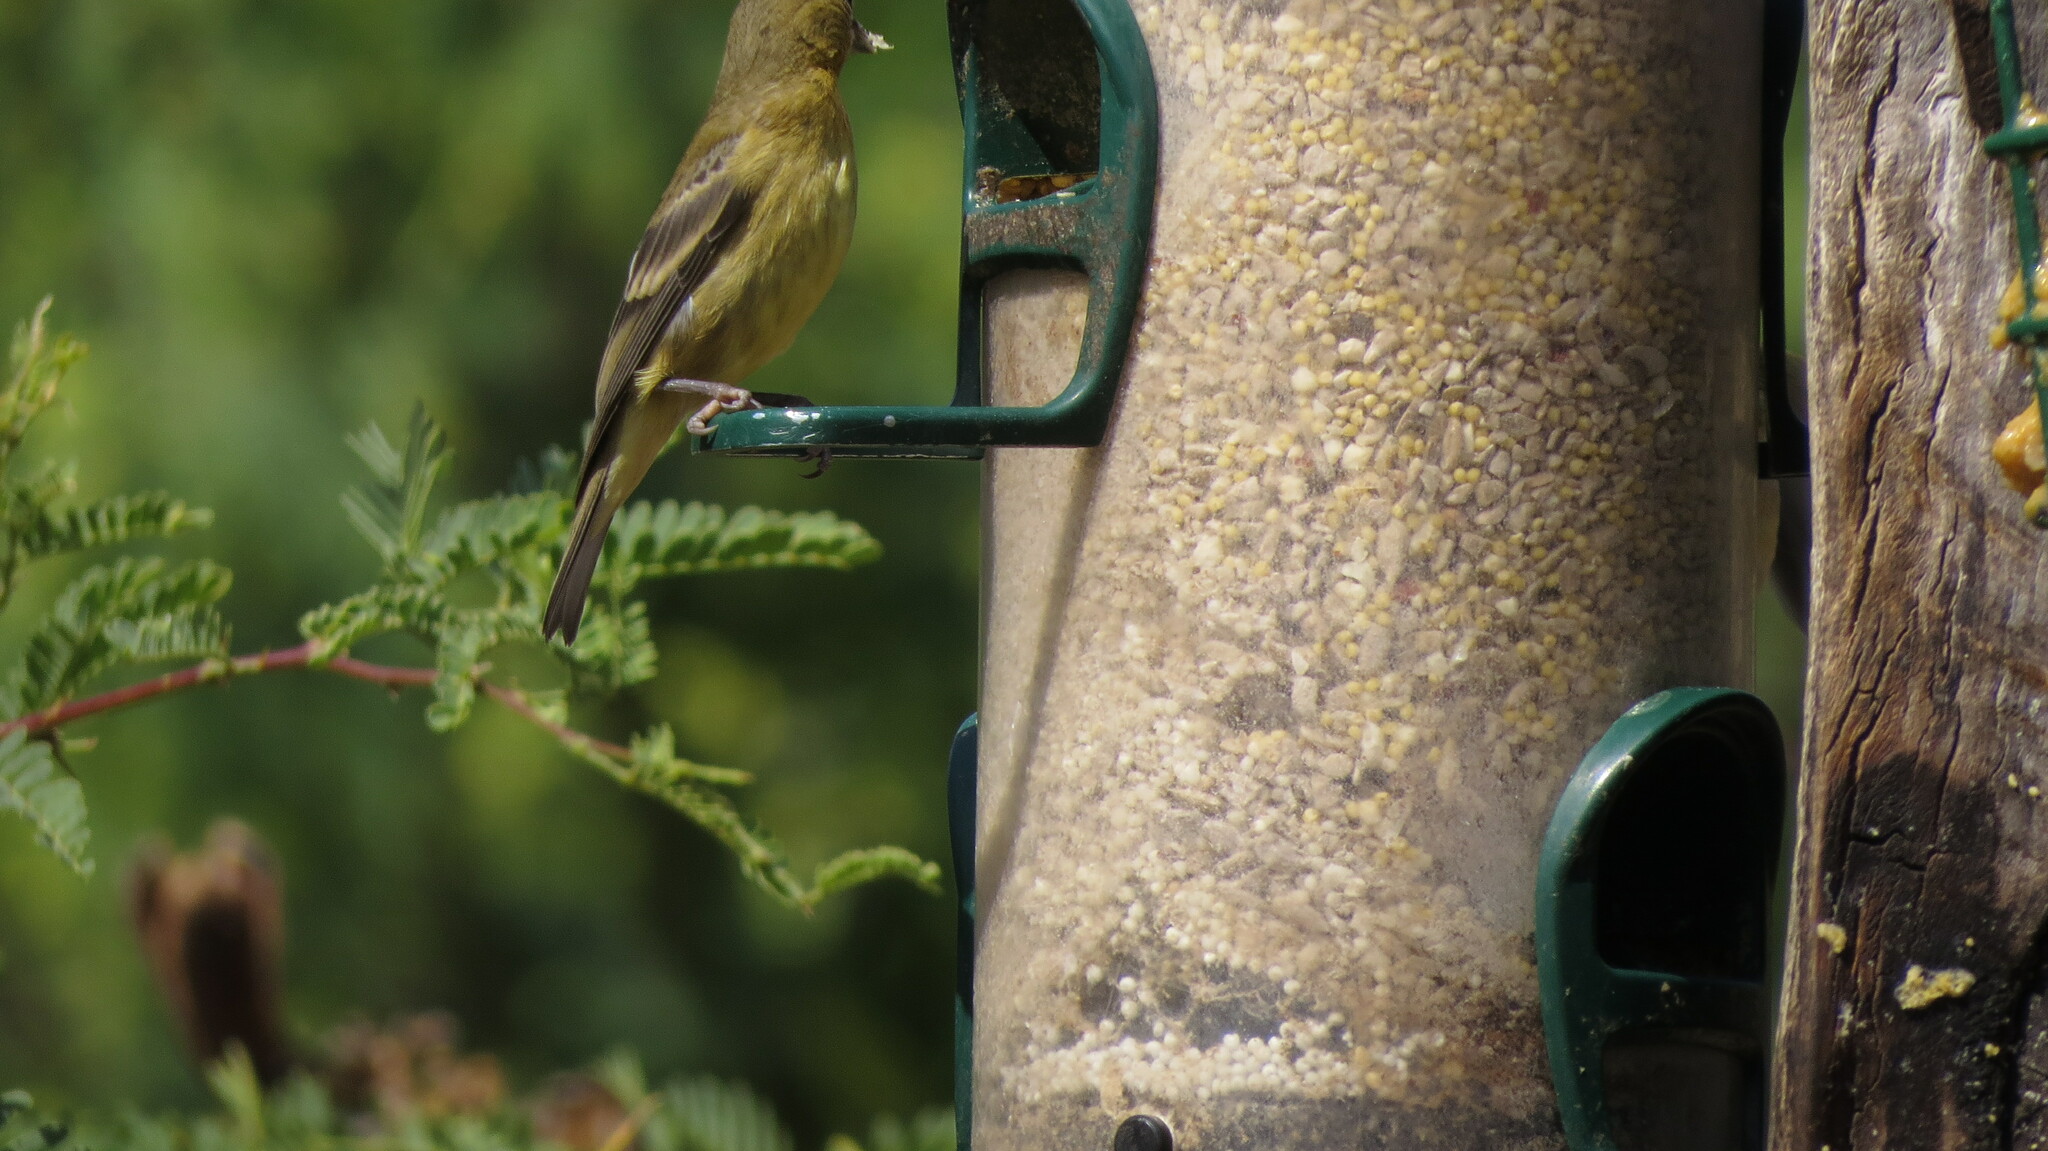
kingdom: Animalia
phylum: Chordata
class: Aves
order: Passeriformes
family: Fringillidae
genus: Spinus
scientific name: Spinus psaltria
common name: Lesser goldfinch
